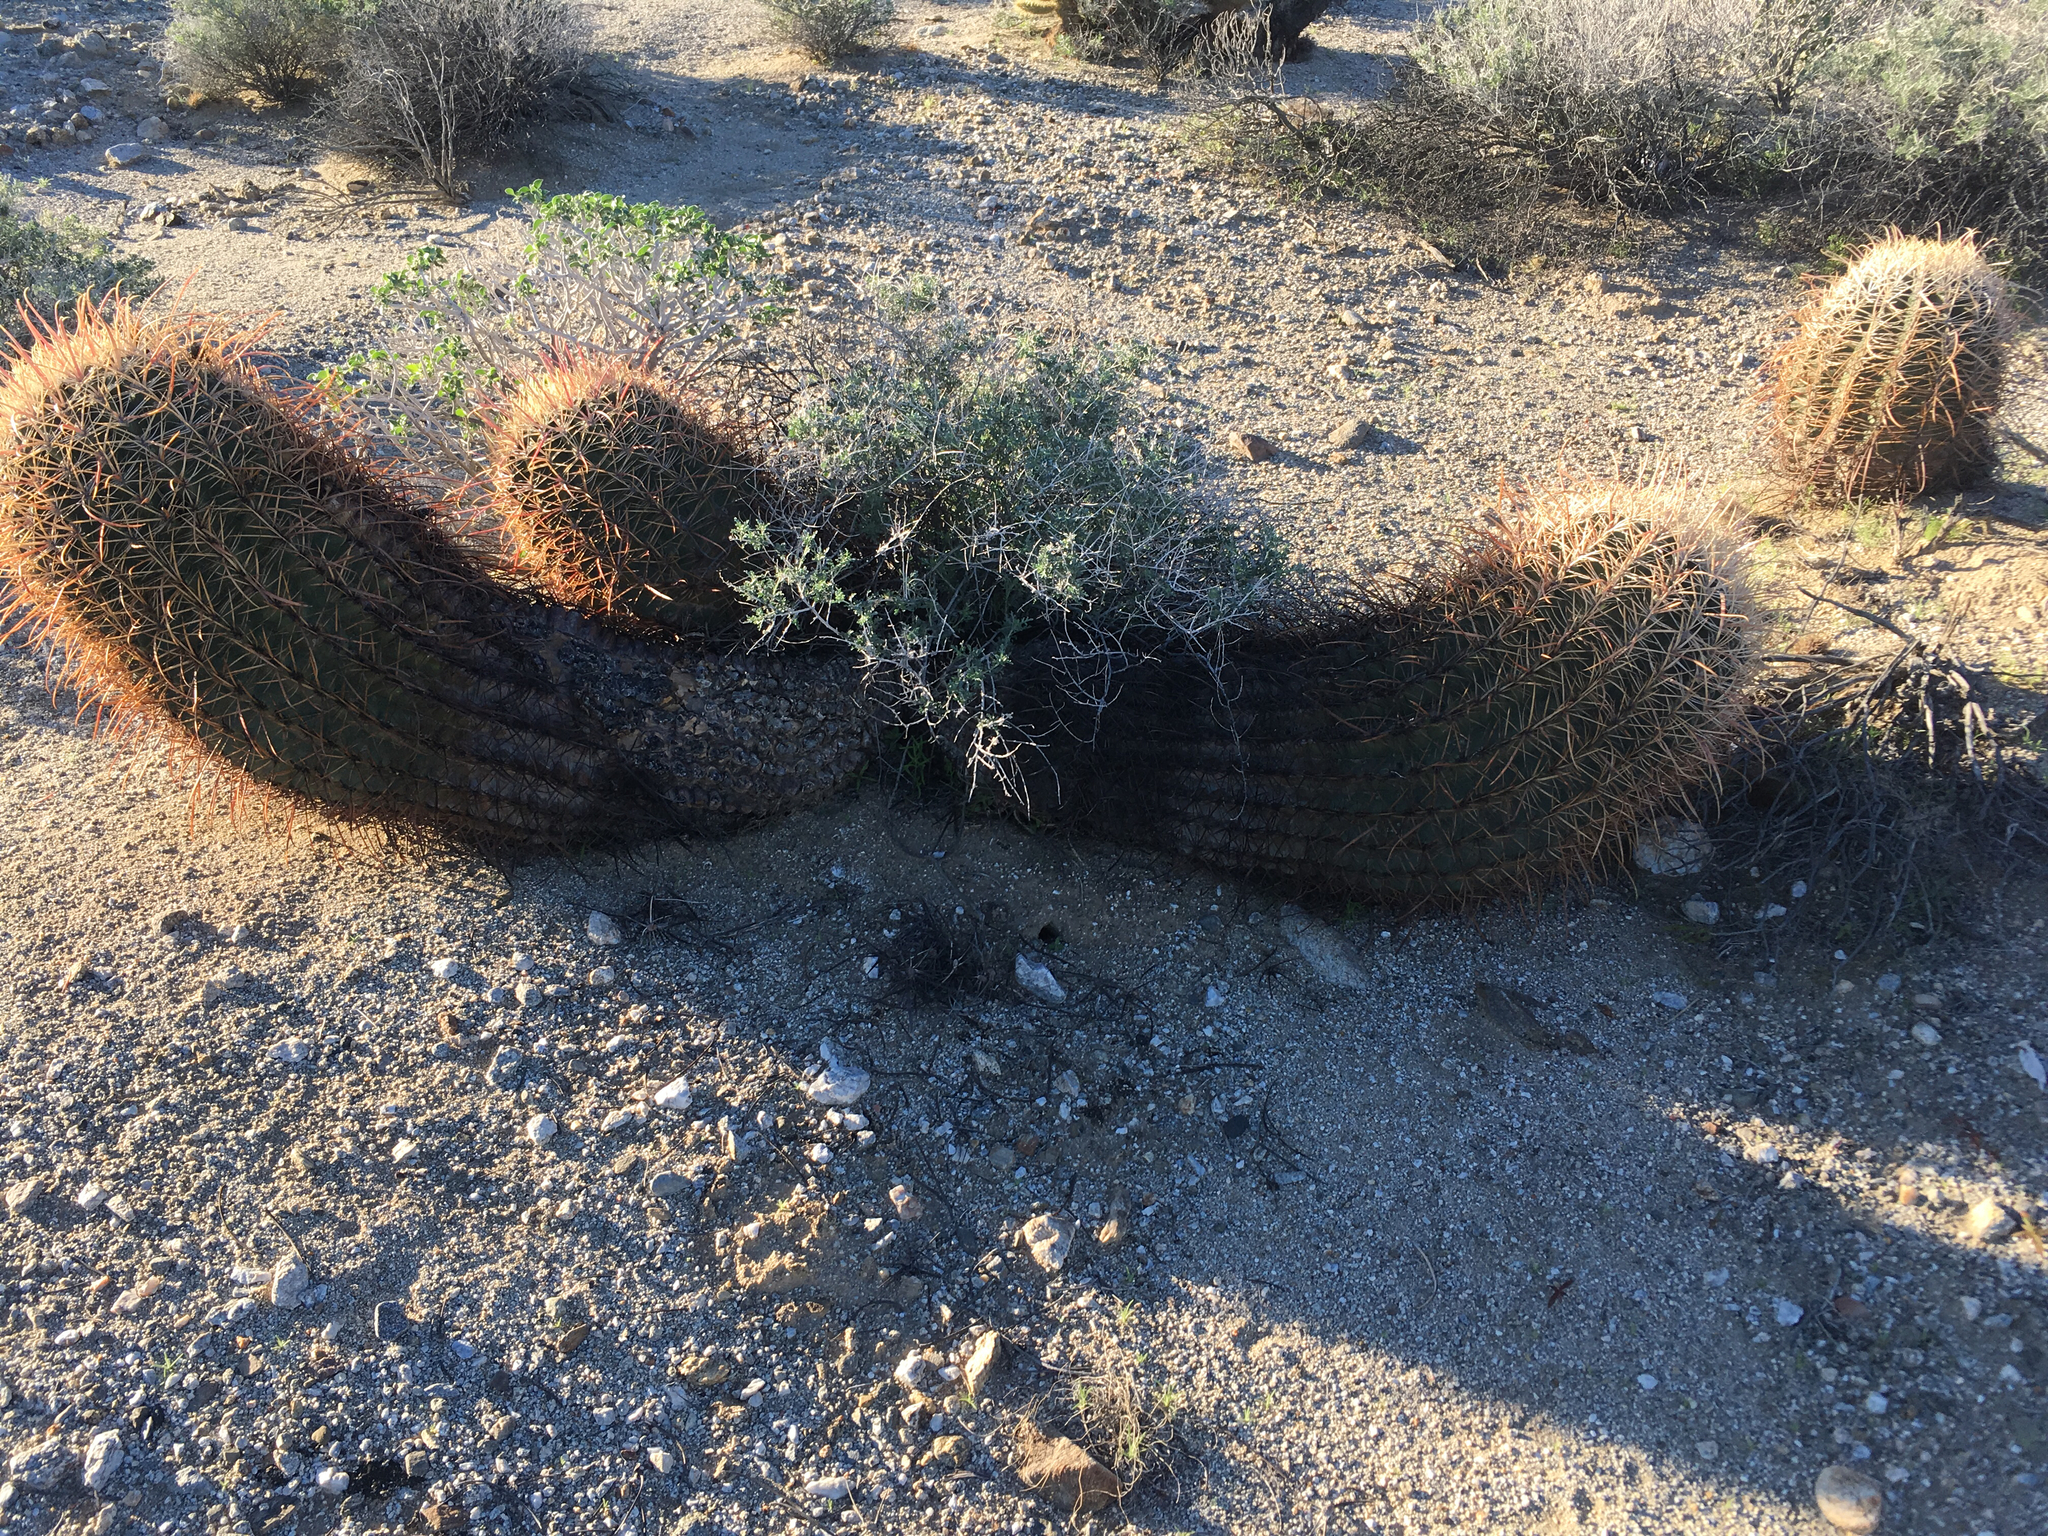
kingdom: Plantae
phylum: Tracheophyta
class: Magnoliopsida
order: Caryophyllales
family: Cactaceae
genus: Ferocactus
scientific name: Ferocactus cylindraceus
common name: California barrel cactus
